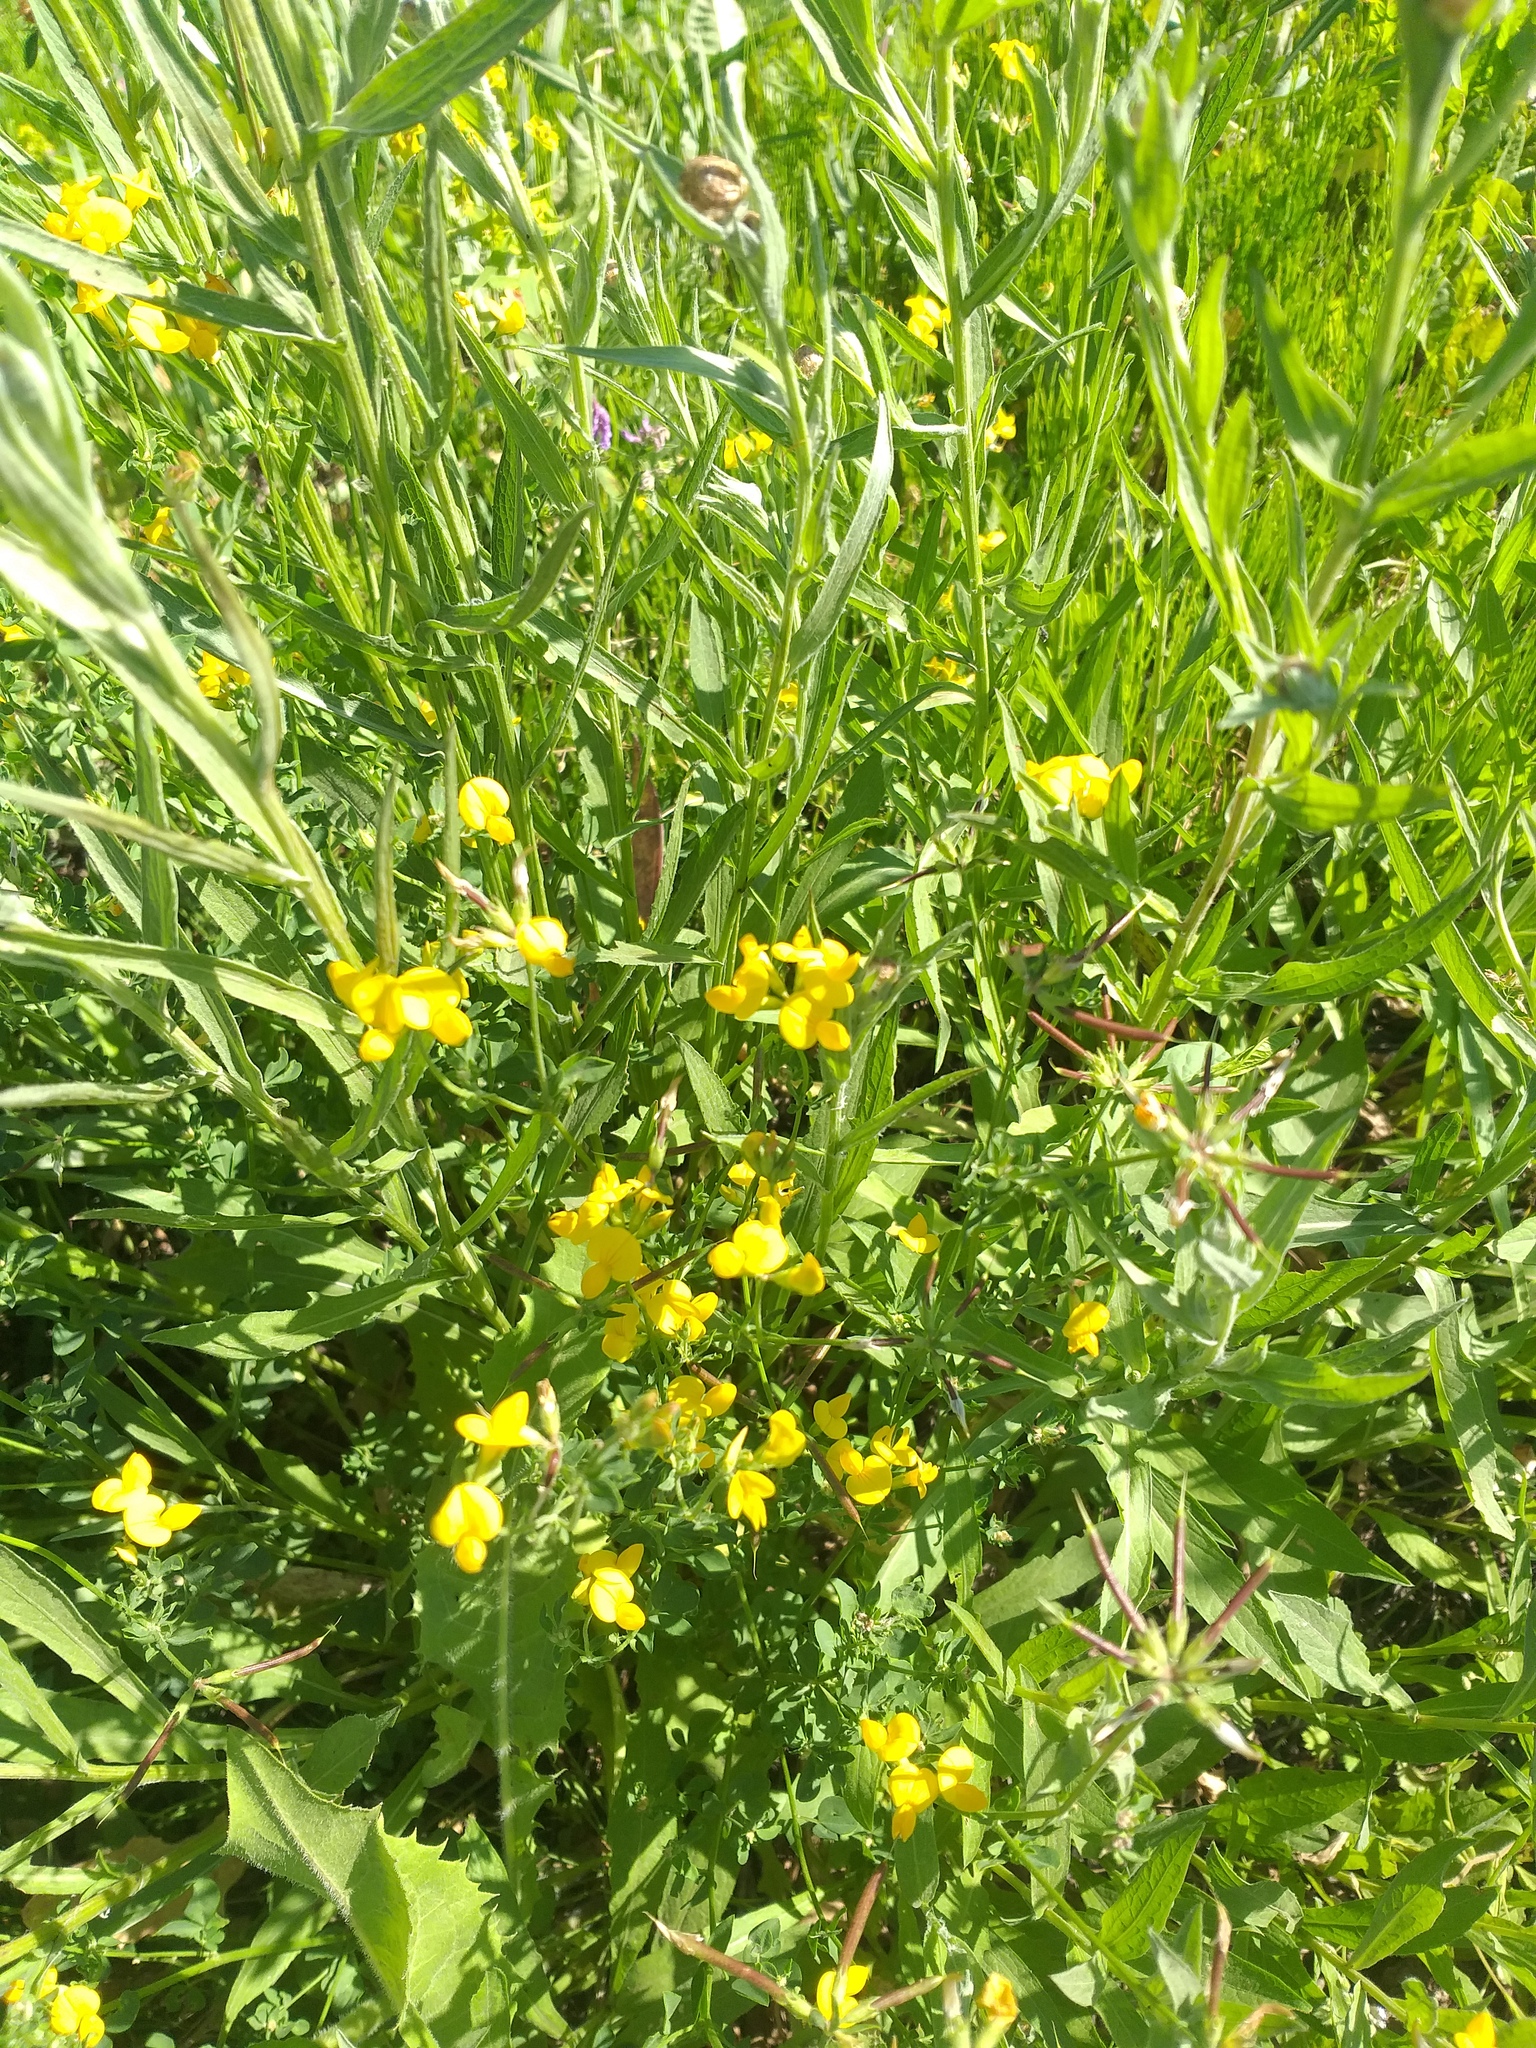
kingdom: Plantae
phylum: Tracheophyta
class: Magnoliopsida
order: Fabales
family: Fabaceae
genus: Lotus
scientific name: Lotus corniculatus
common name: Common bird's-foot-trefoil
